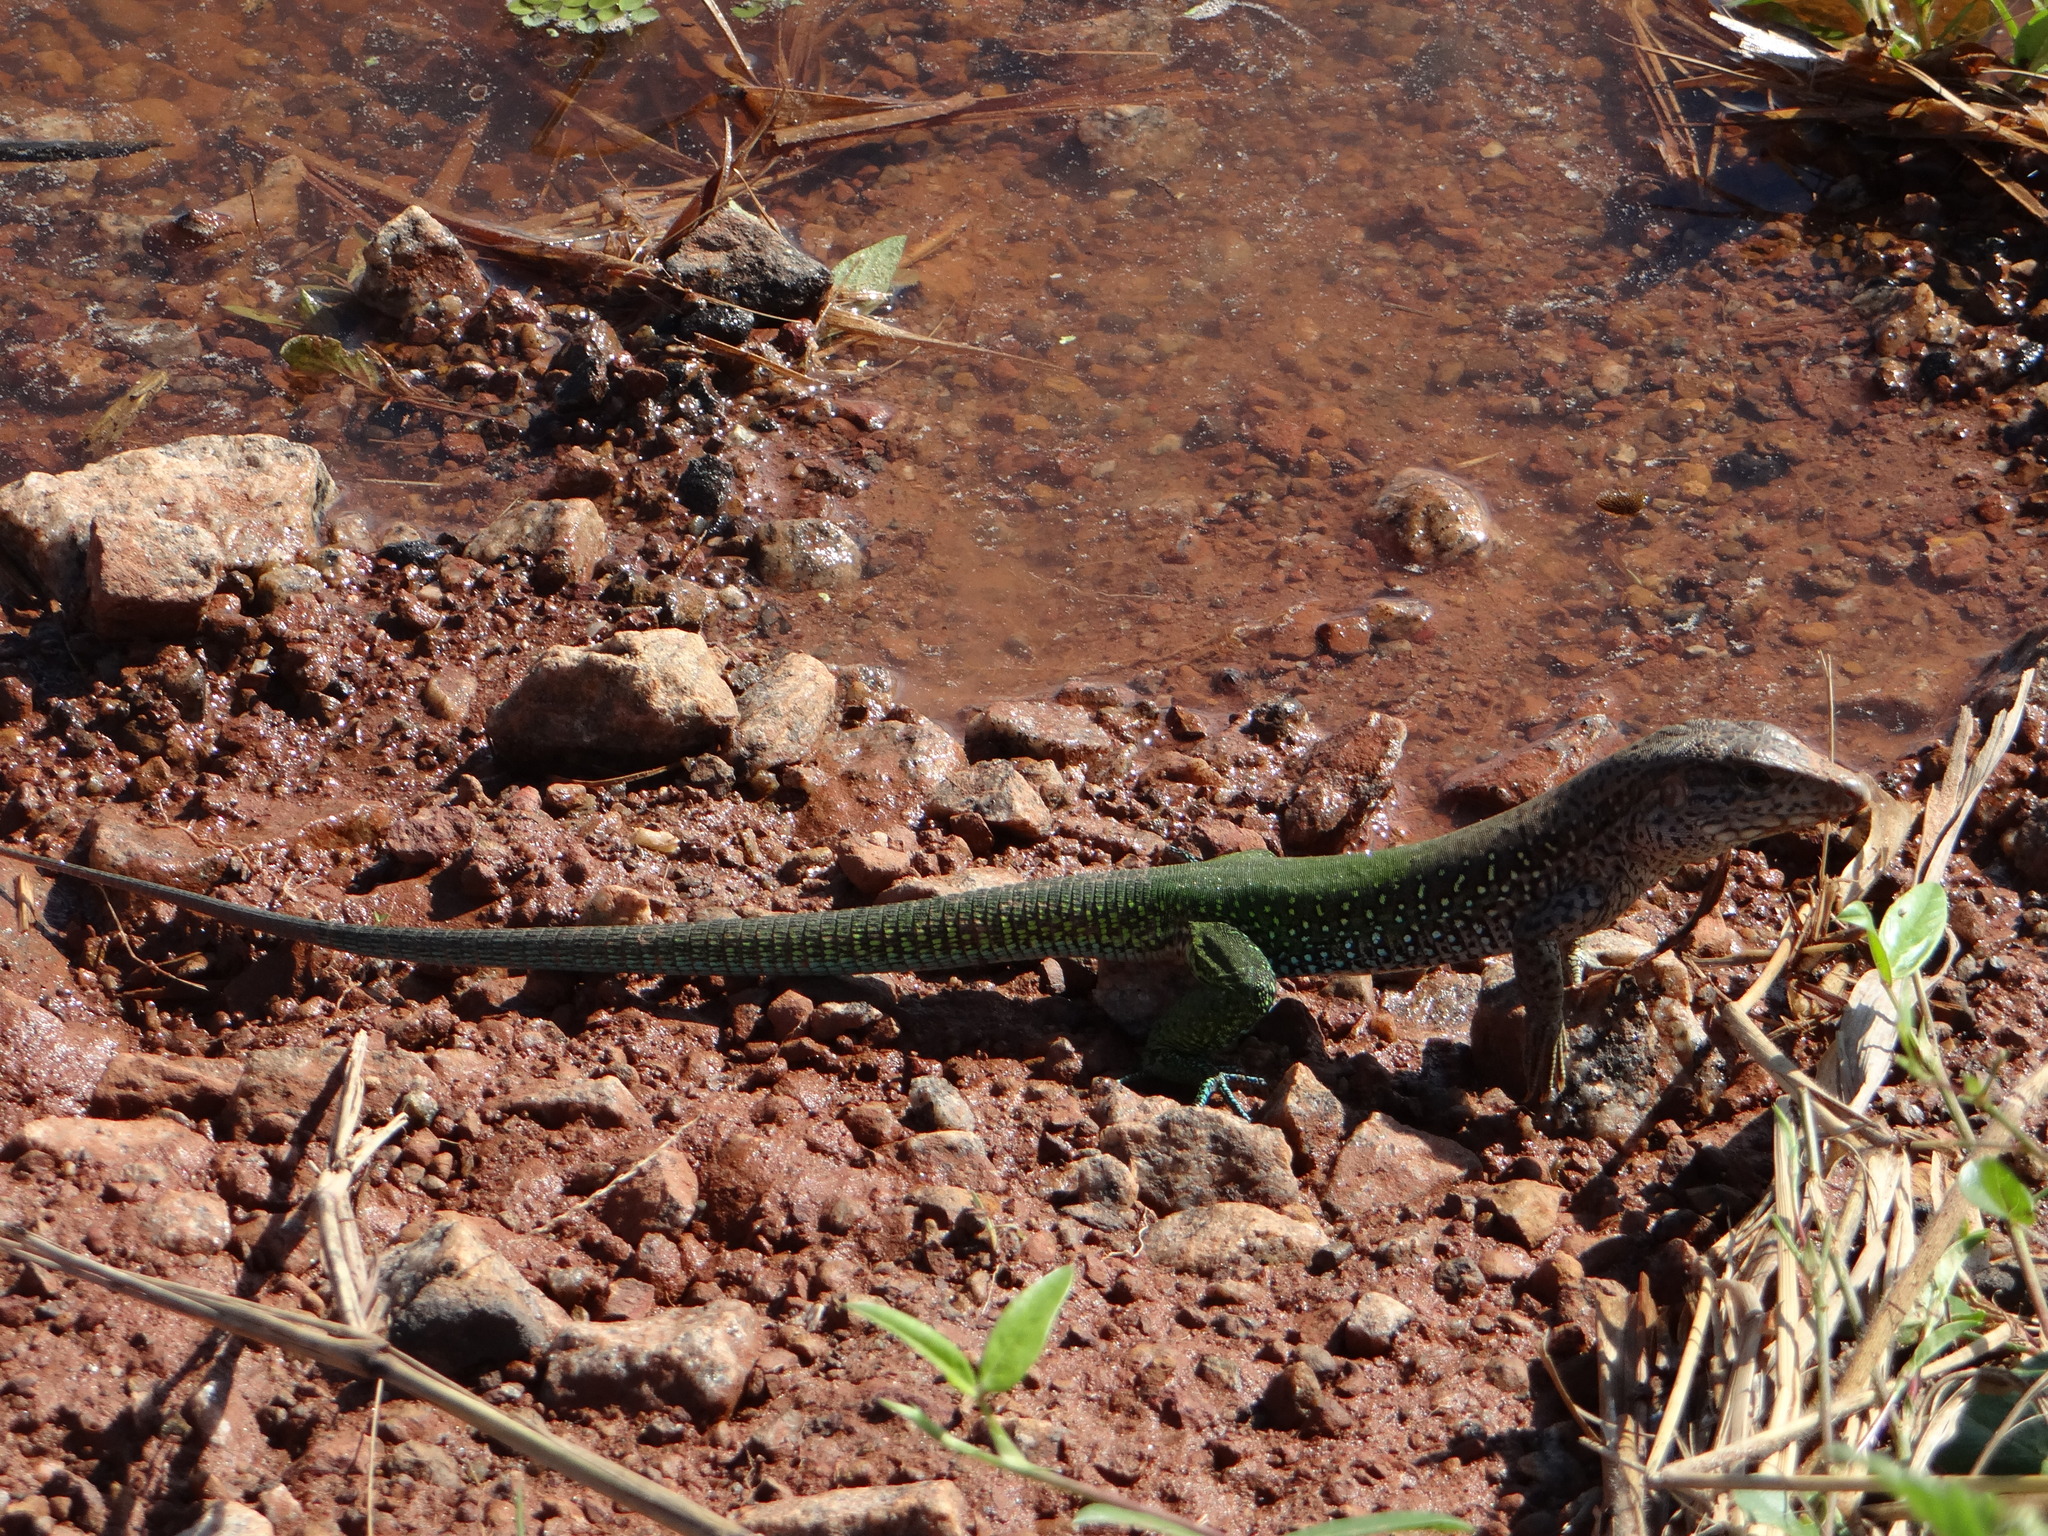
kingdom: Animalia
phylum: Chordata
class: Squamata
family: Teiidae
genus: Ameiva
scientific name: Ameiva ameiva
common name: Giant ameiva
